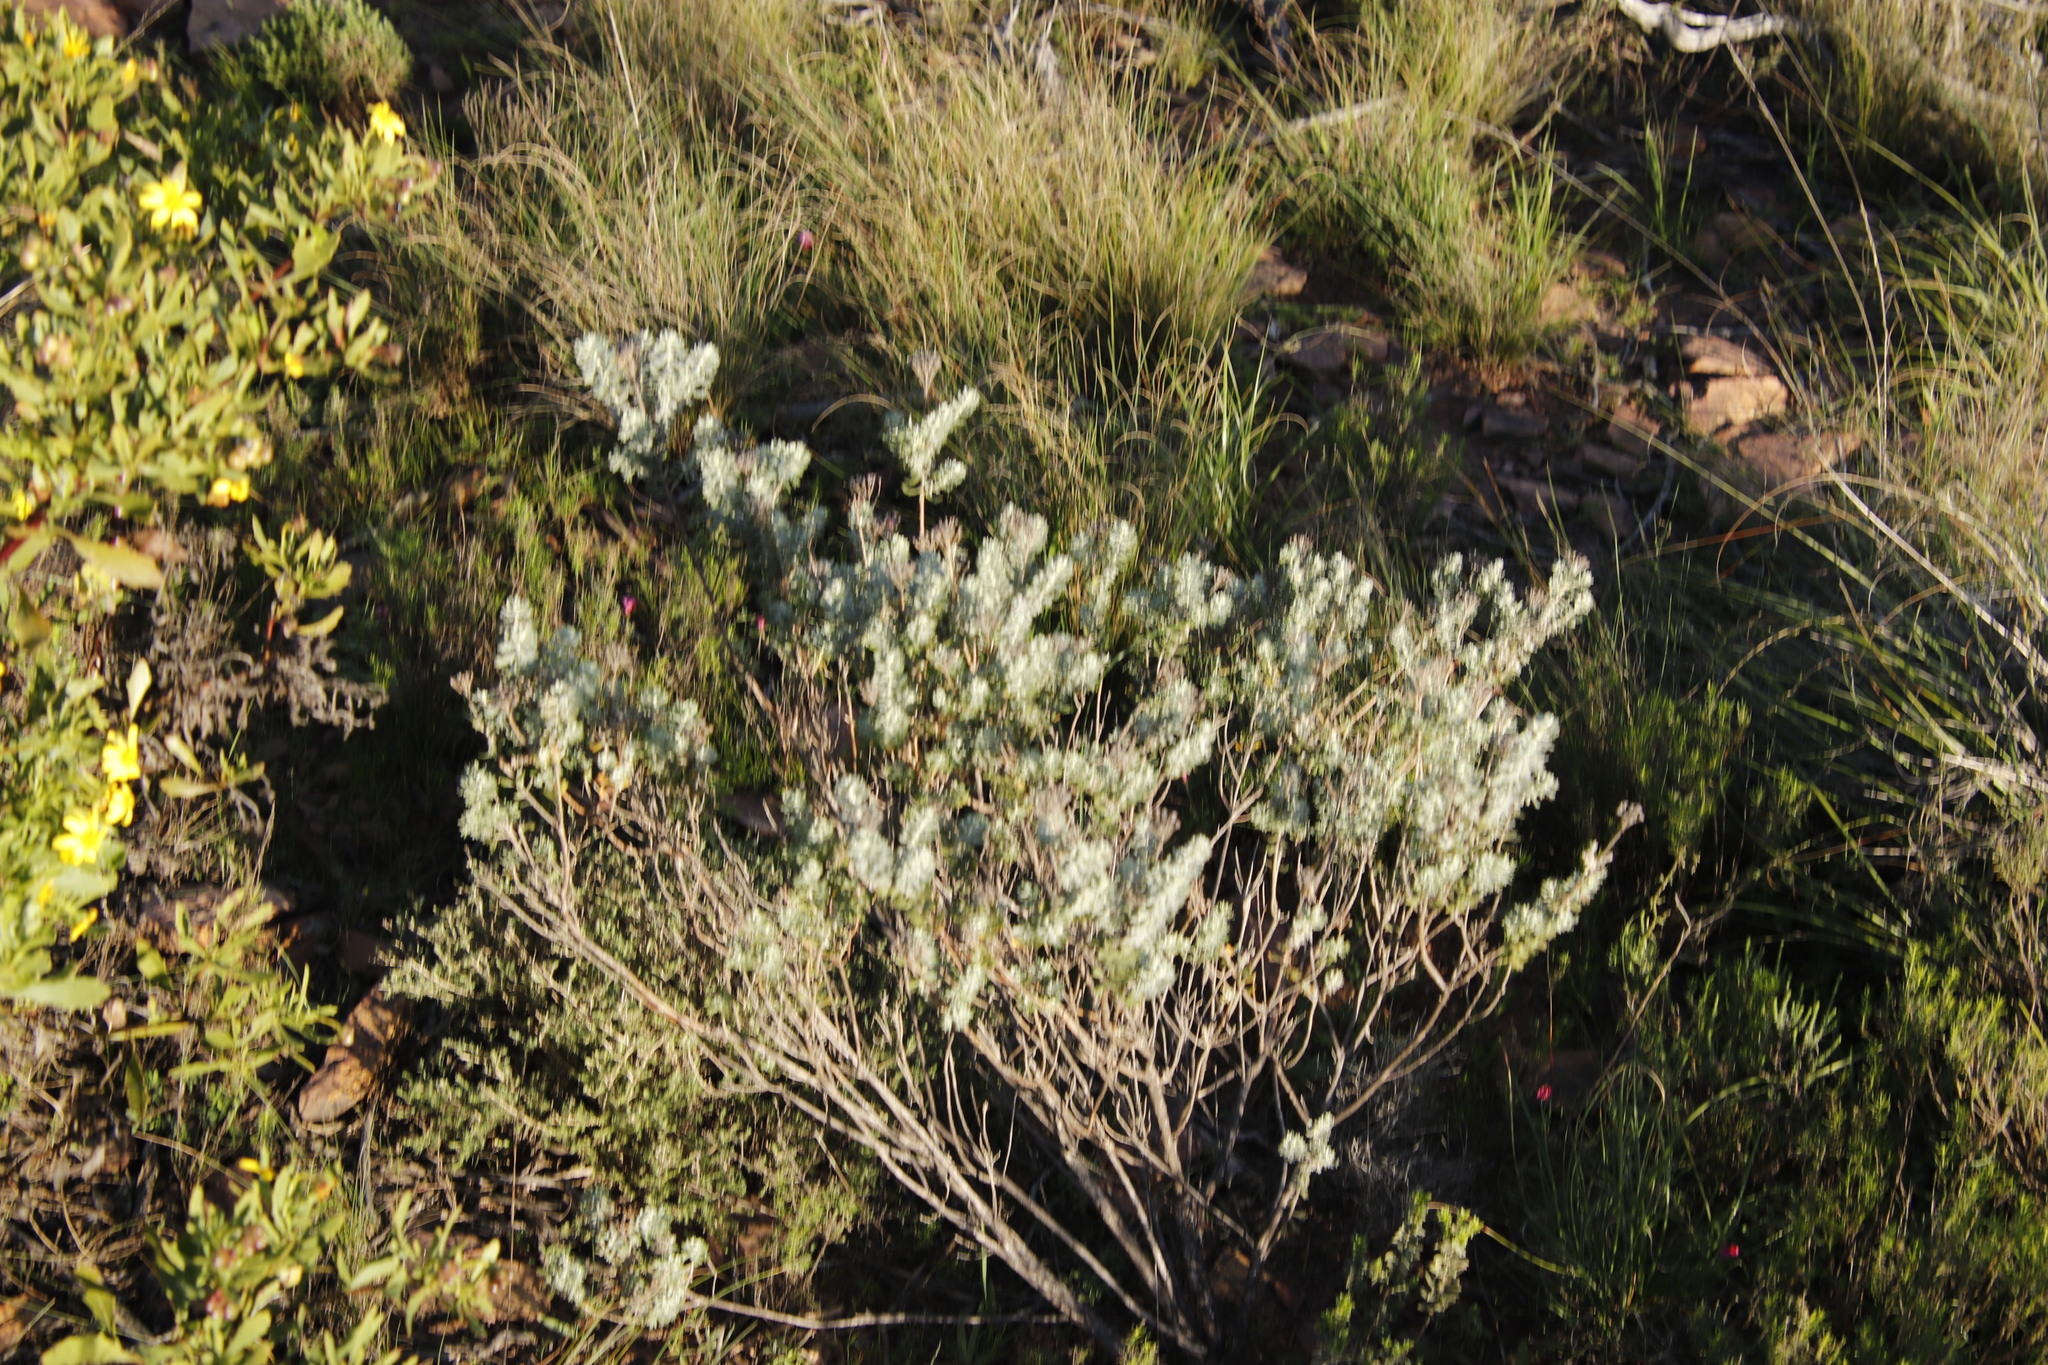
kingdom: Plantae
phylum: Tracheophyta
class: Magnoliopsida
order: Asterales
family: Asteraceae
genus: Athanasia
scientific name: Athanasia trifurcata
